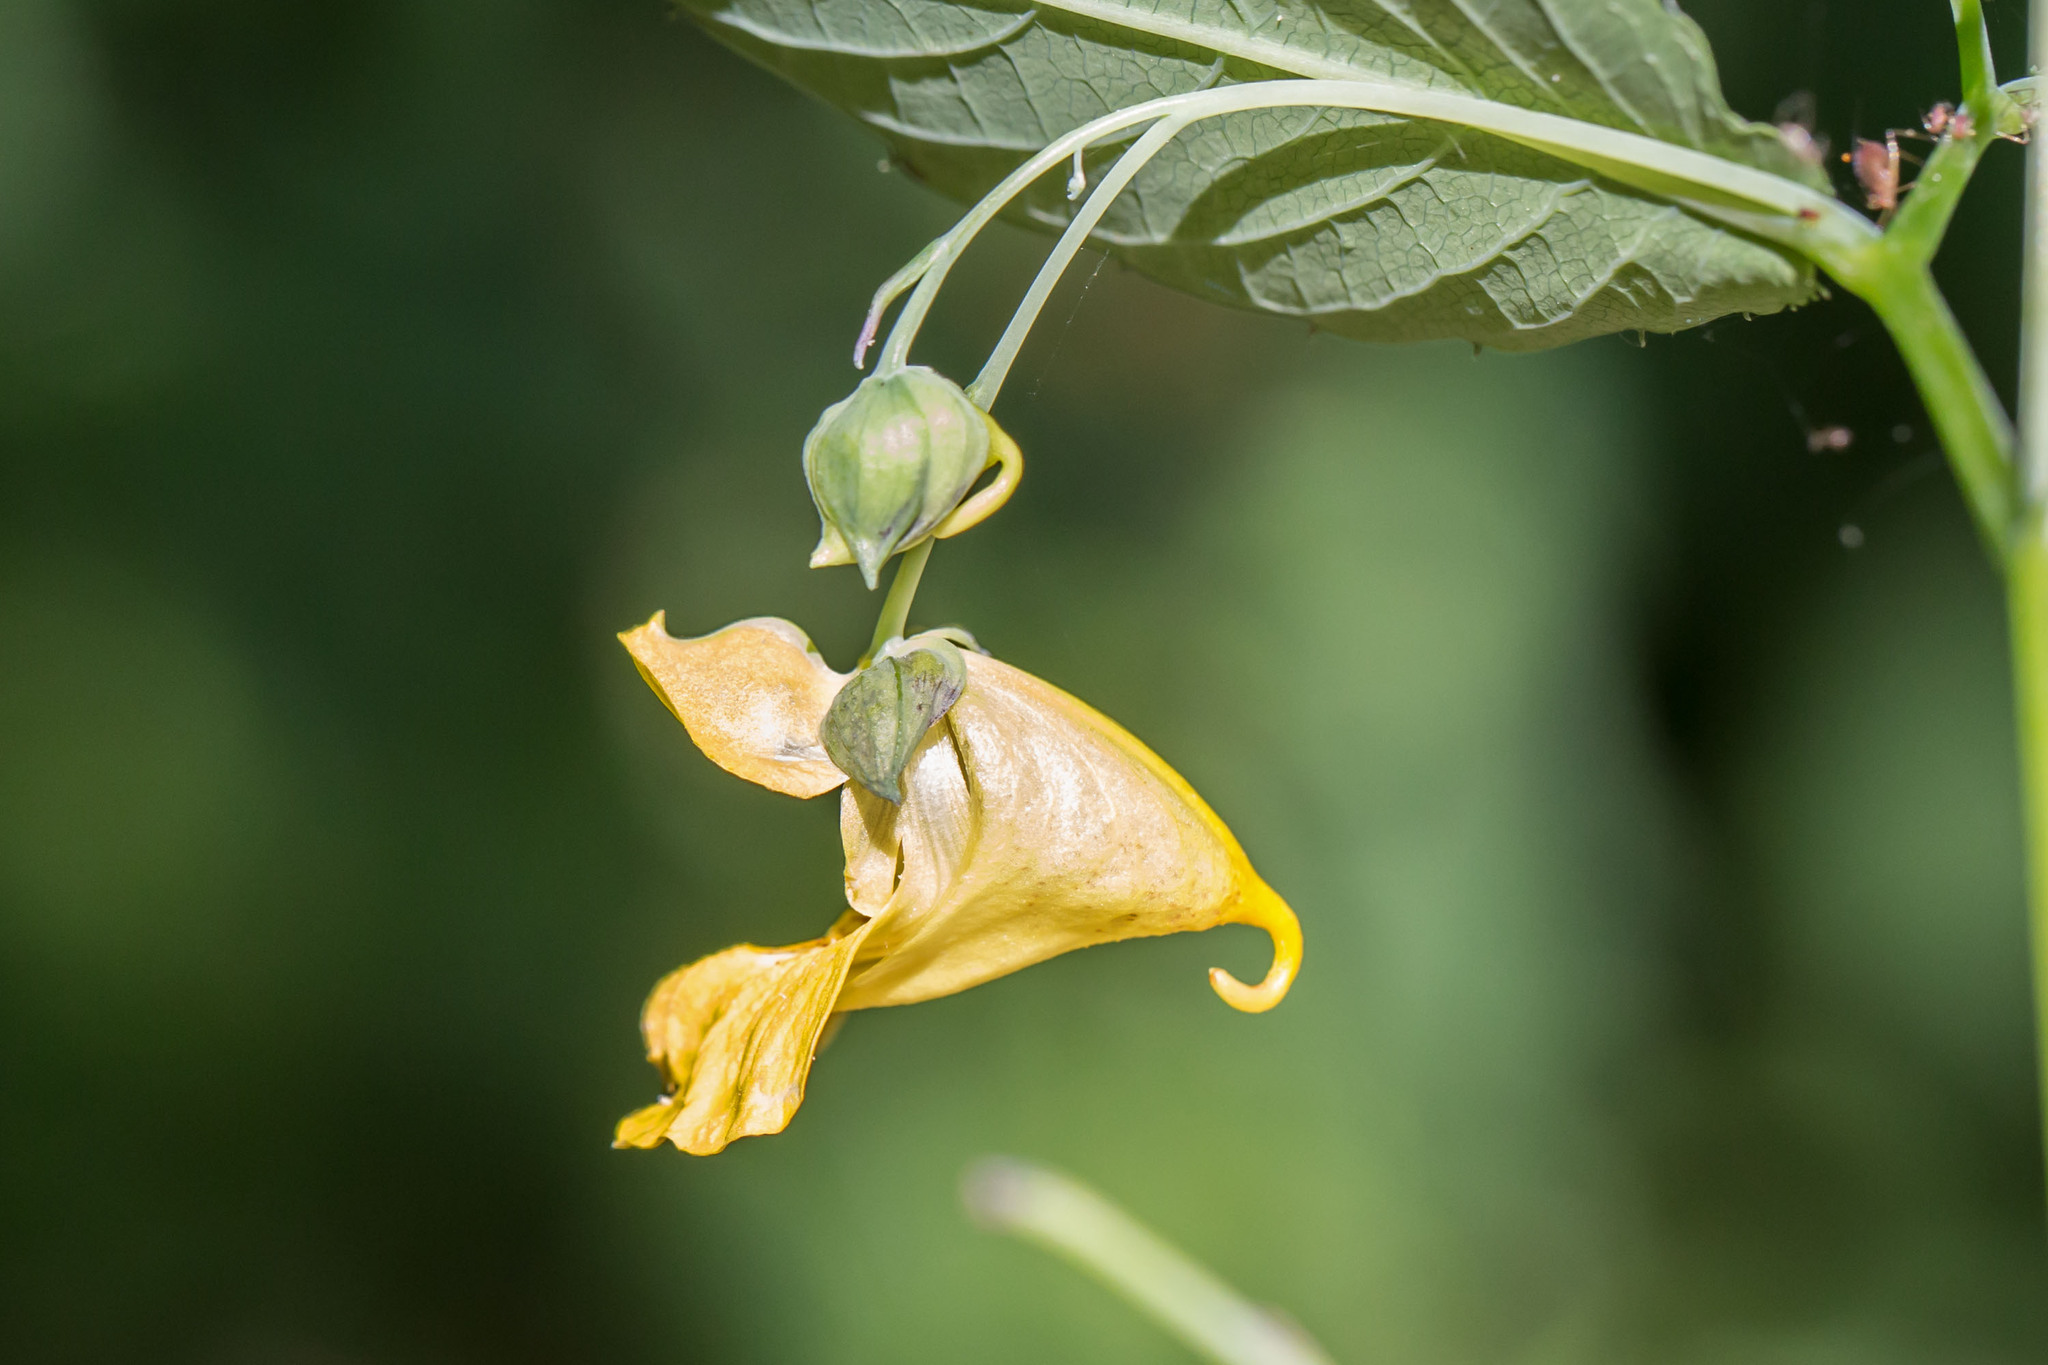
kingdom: Plantae
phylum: Tracheophyta
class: Magnoliopsida
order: Ericales
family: Balsaminaceae
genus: Impatiens
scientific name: Impatiens pallida
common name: Pale snapweed
